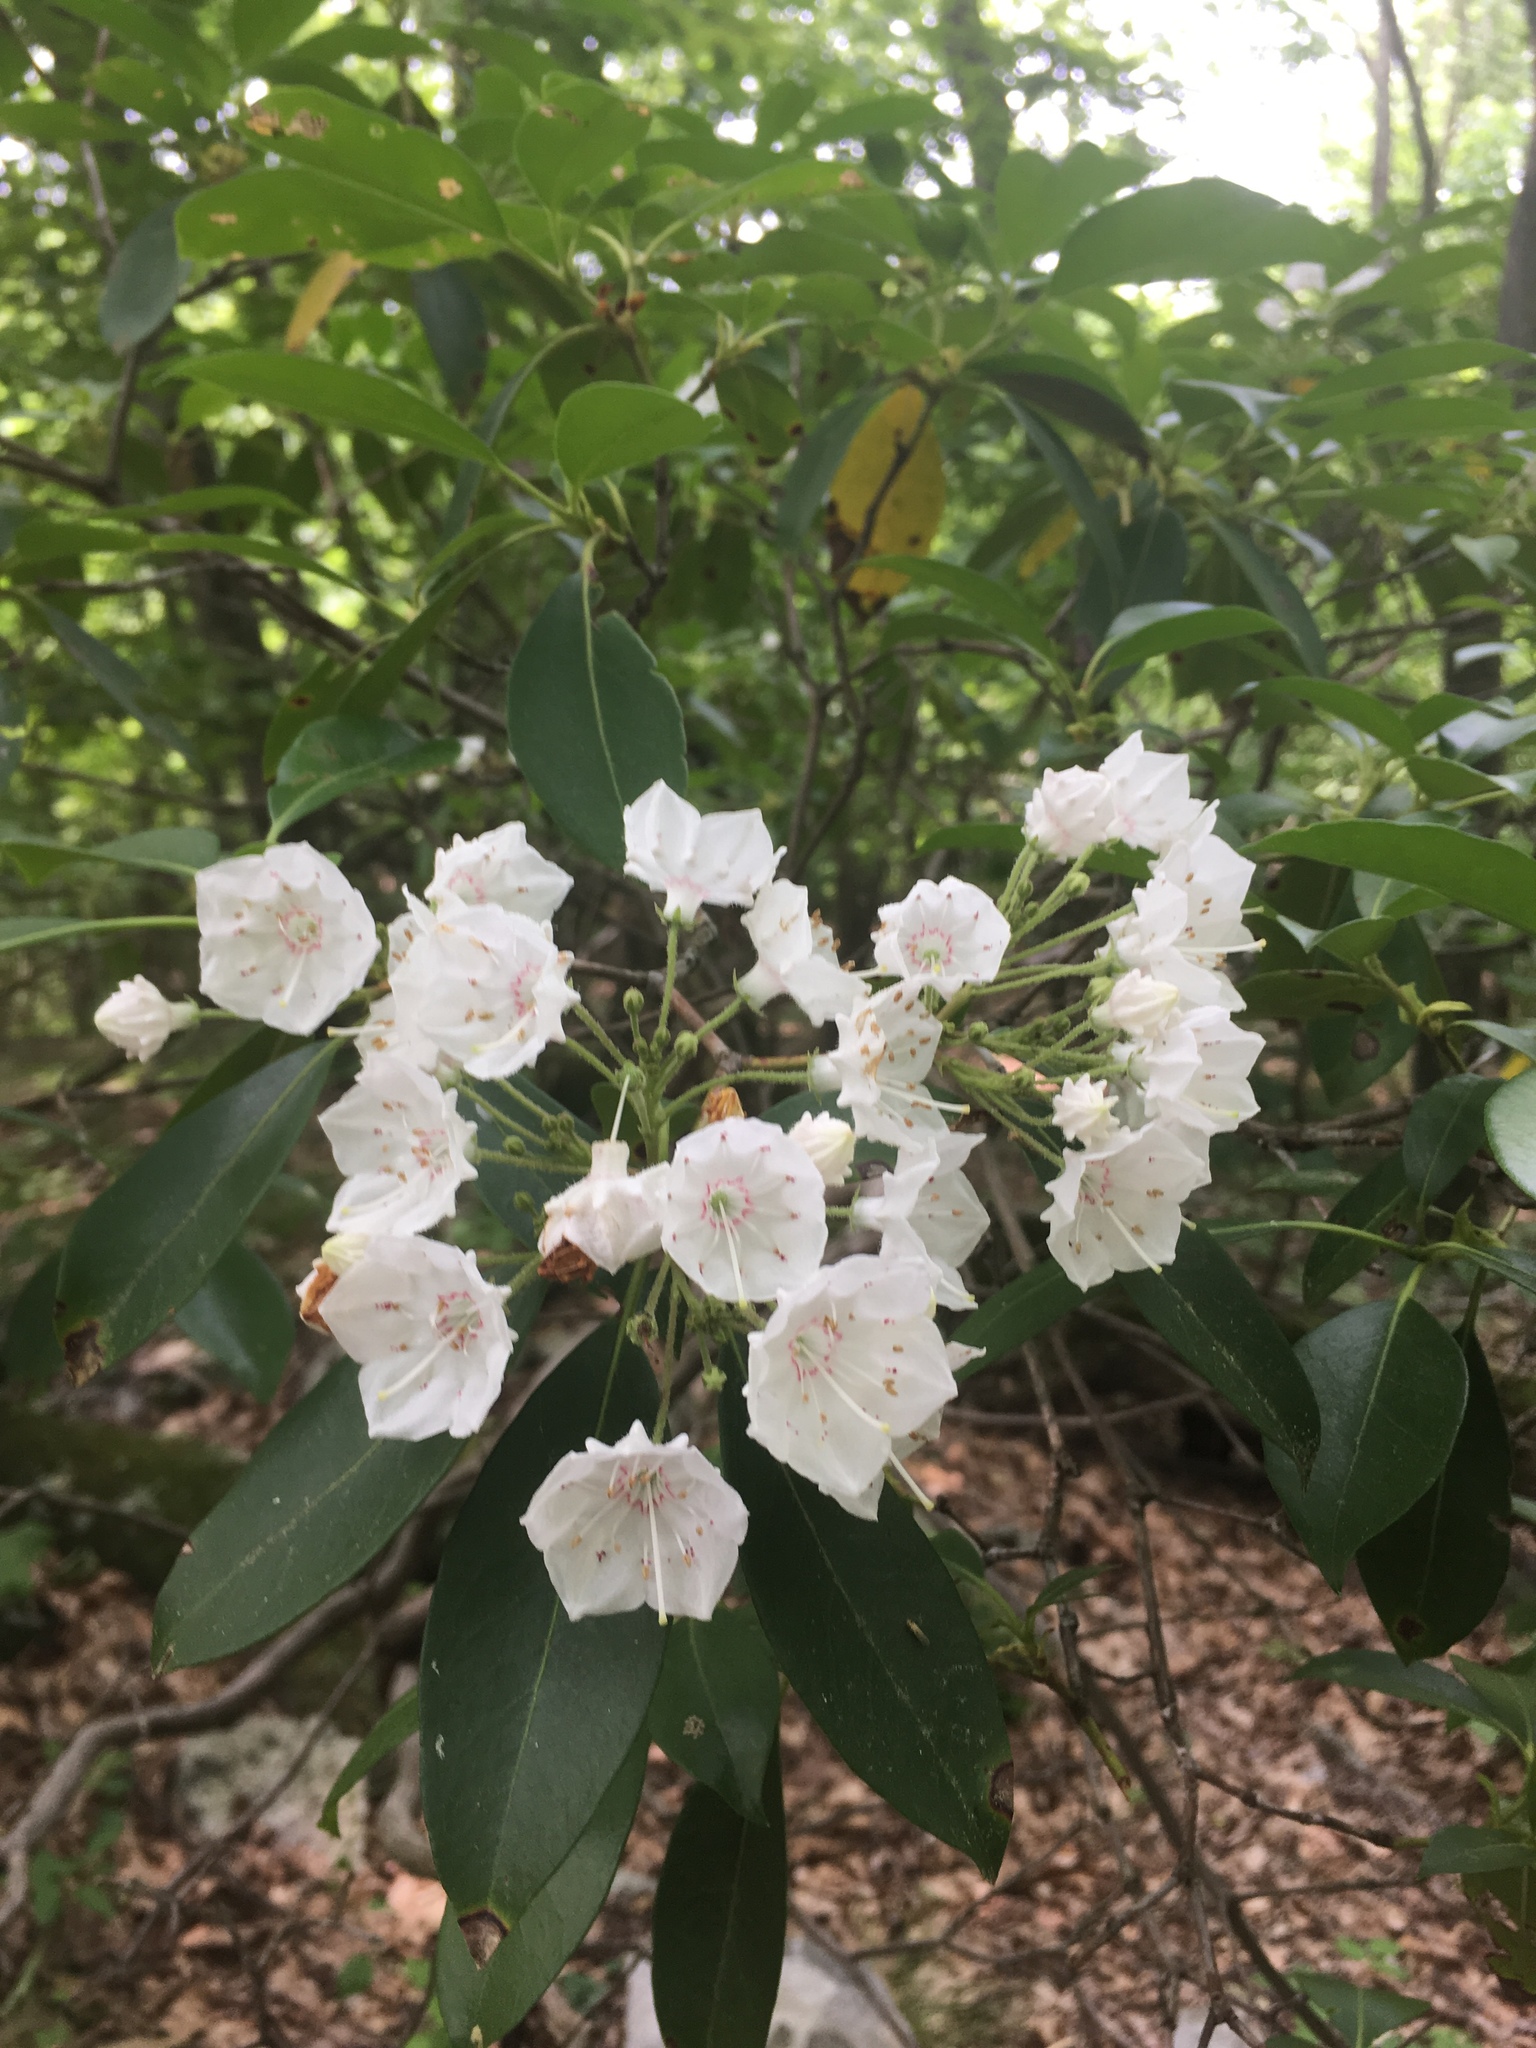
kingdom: Plantae
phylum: Tracheophyta
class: Magnoliopsida
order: Ericales
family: Ericaceae
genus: Kalmia
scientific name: Kalmia latifolia
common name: Mountain-laurel
